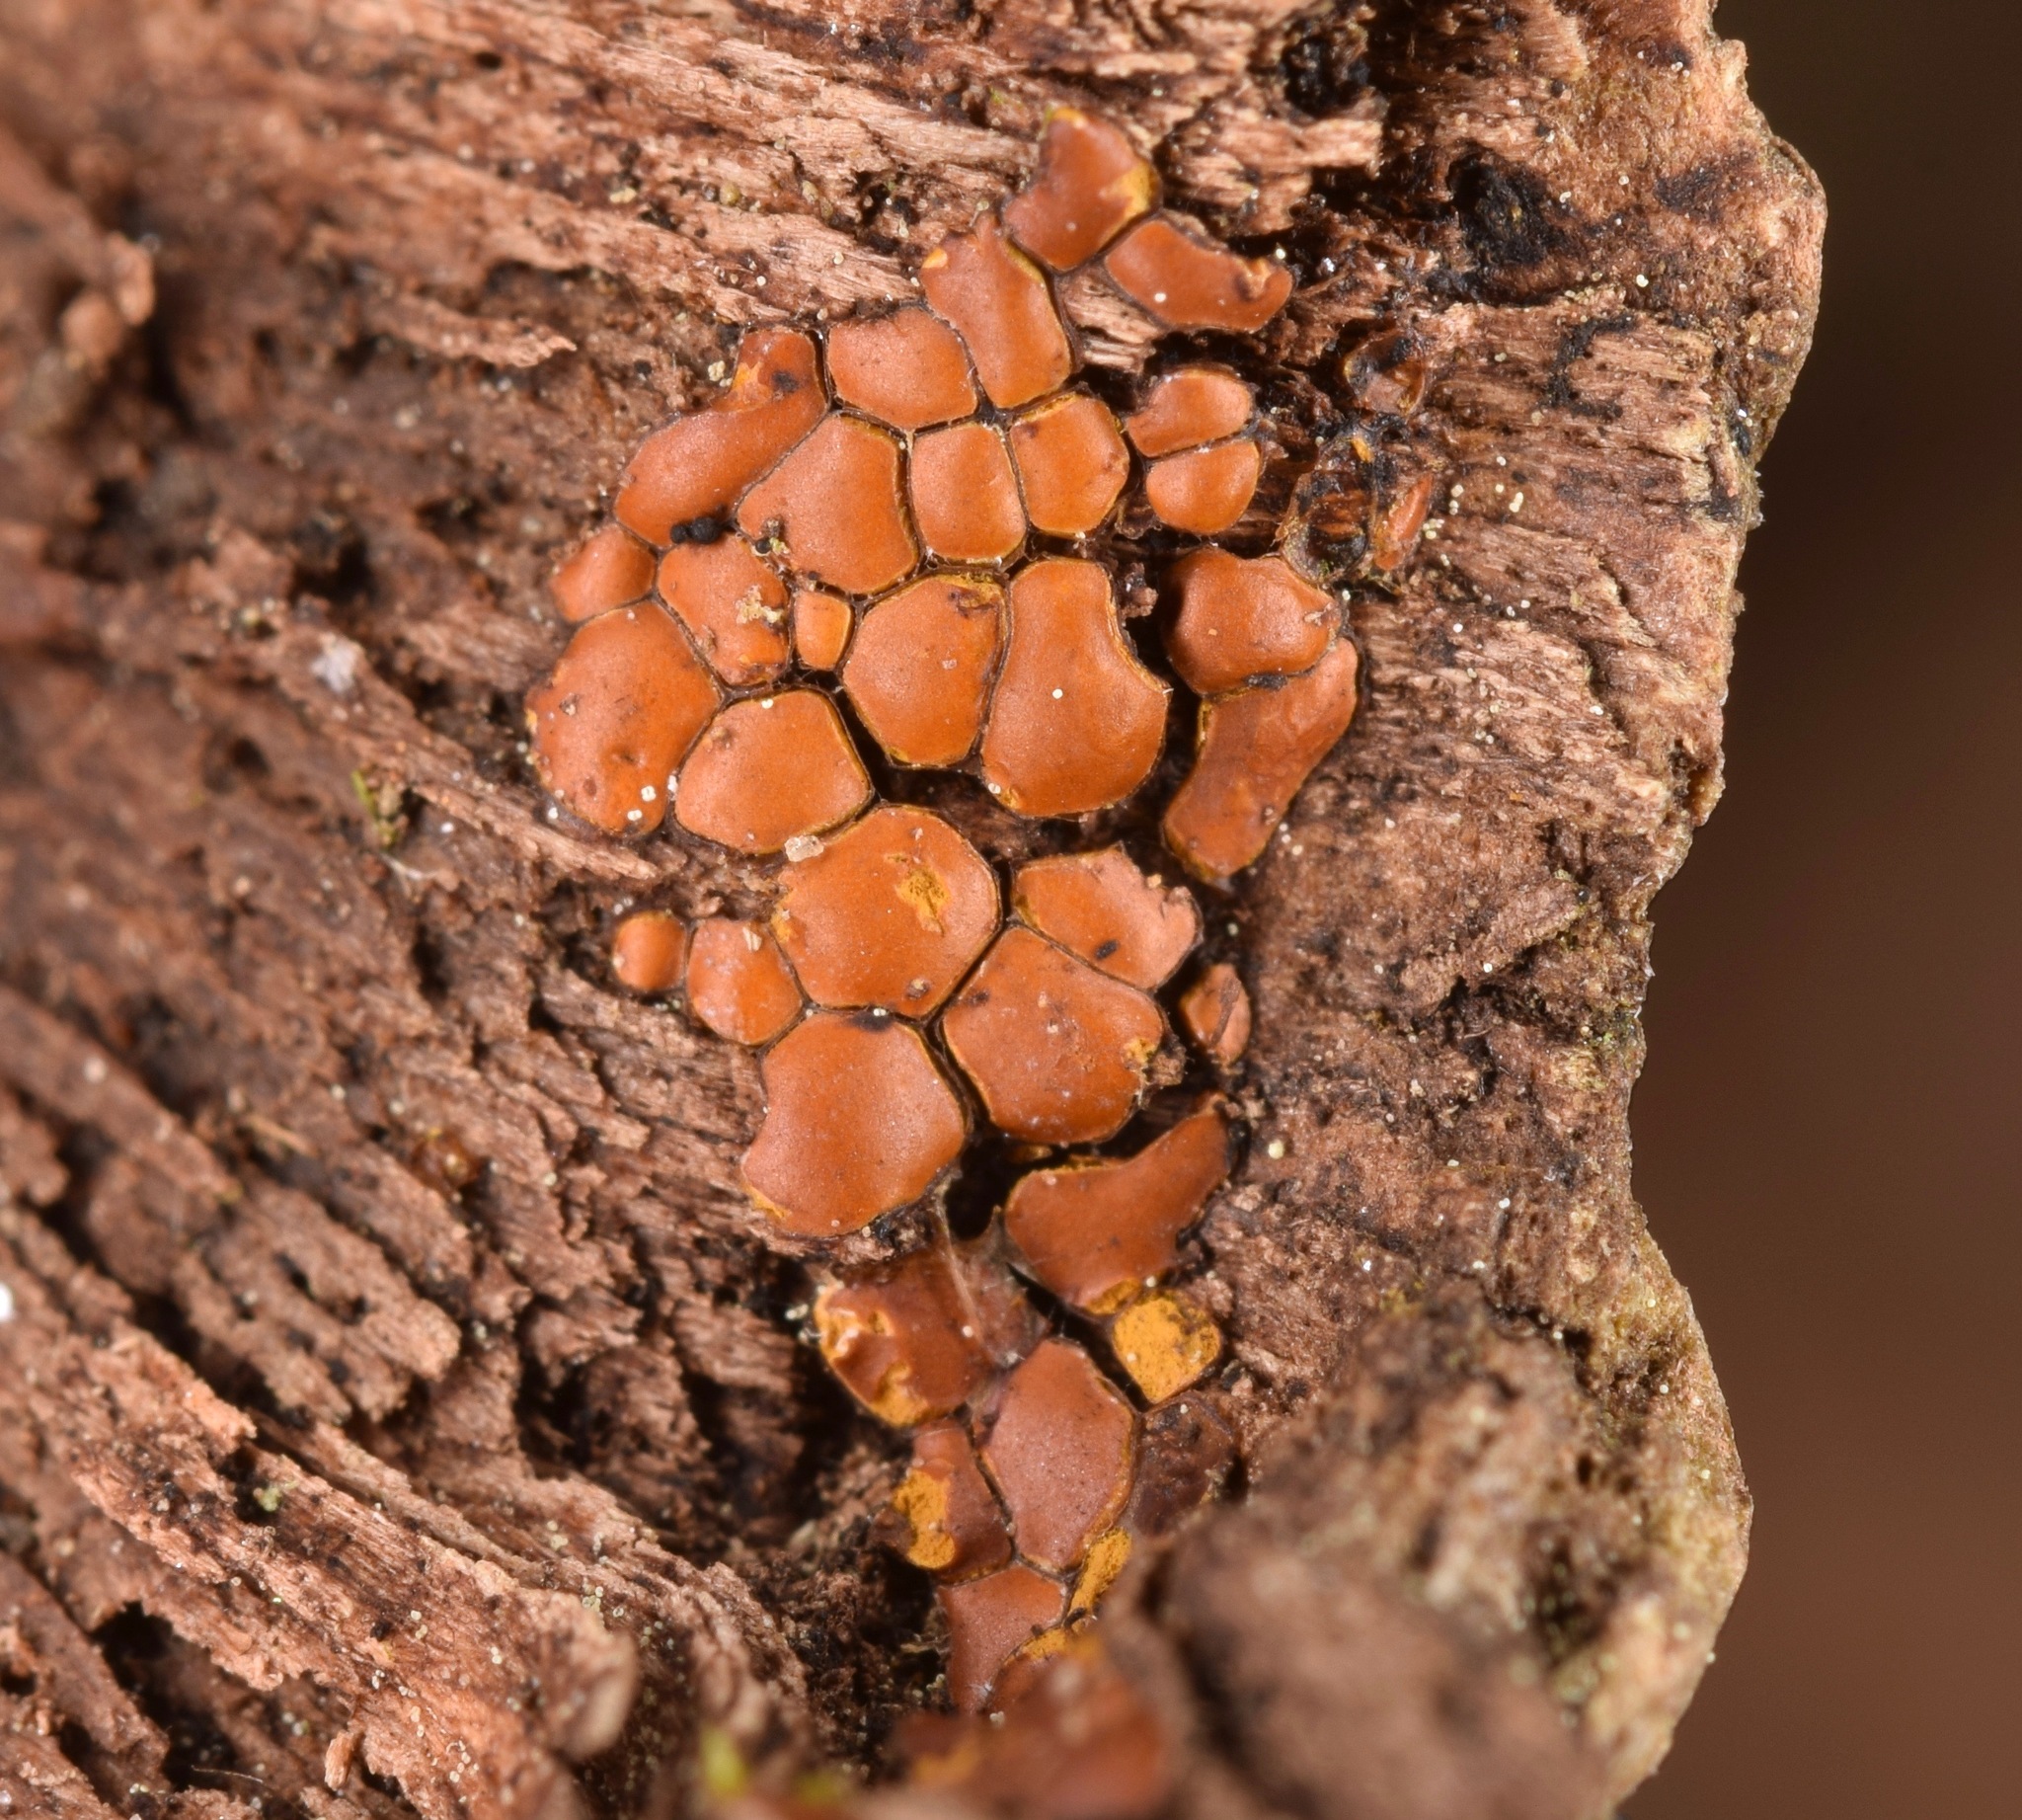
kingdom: Protozoa
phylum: Mycetozoa
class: Myxomycetes
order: Trichiales
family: Trichiaceae
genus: Perichaena
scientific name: Perichaena depressa
